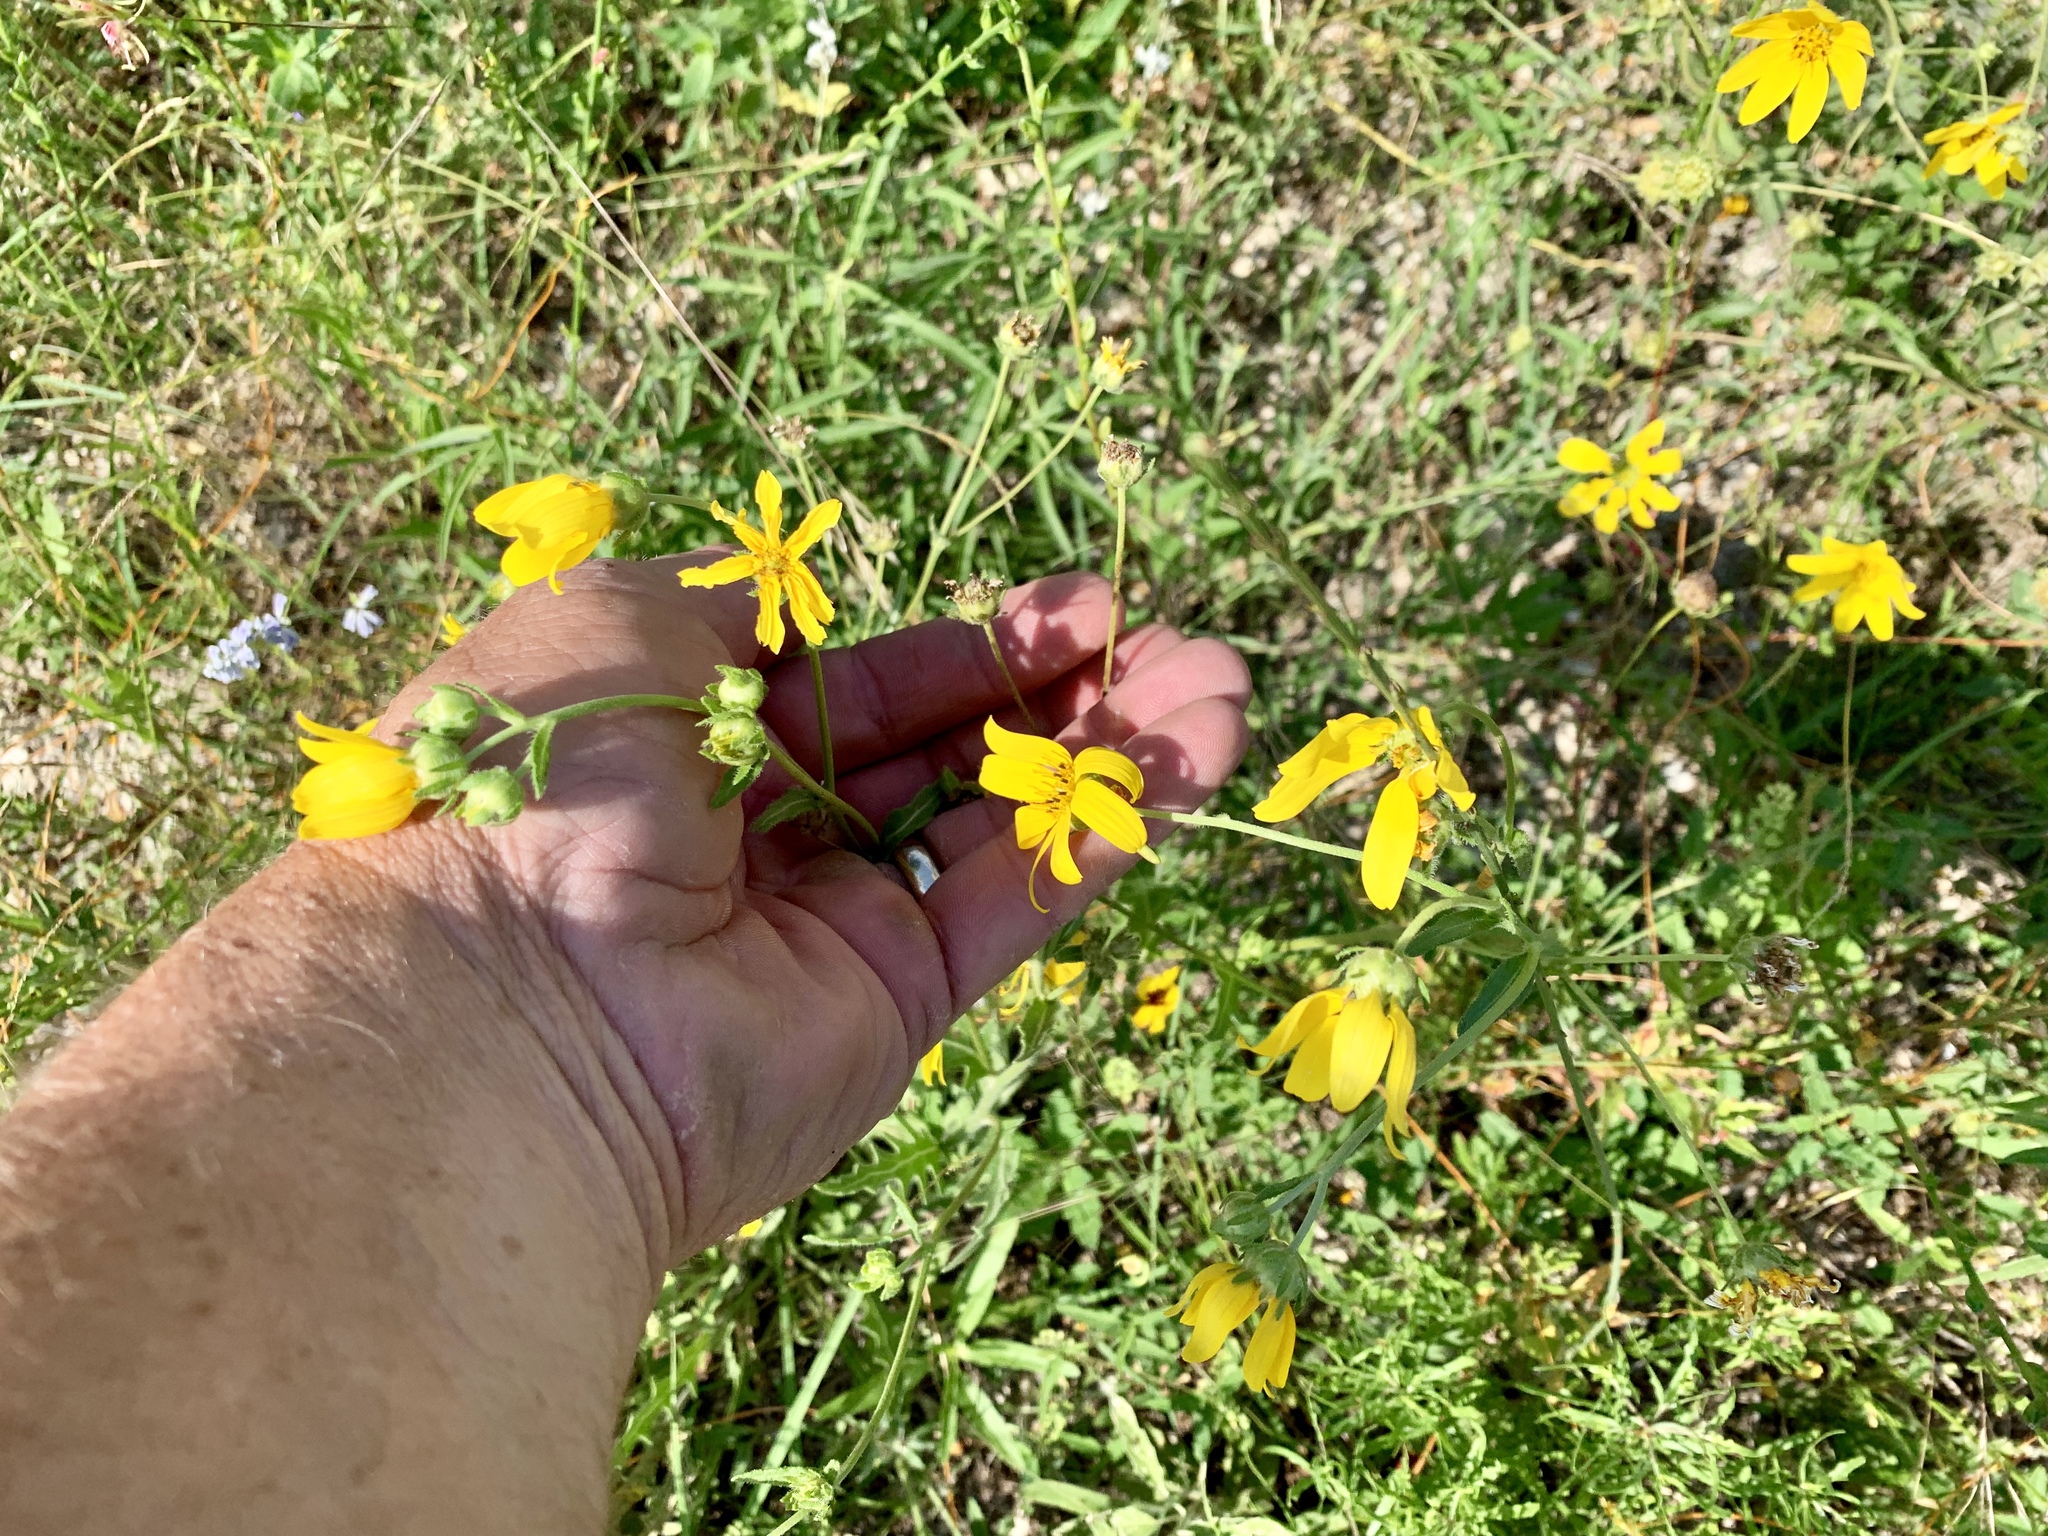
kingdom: Plantae
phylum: Tracheophyta
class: Magnoliopsida
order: Asterales
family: Asteraceae
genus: Engelmannia
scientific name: Engelmannia peristenia
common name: Engelmann's daisy
